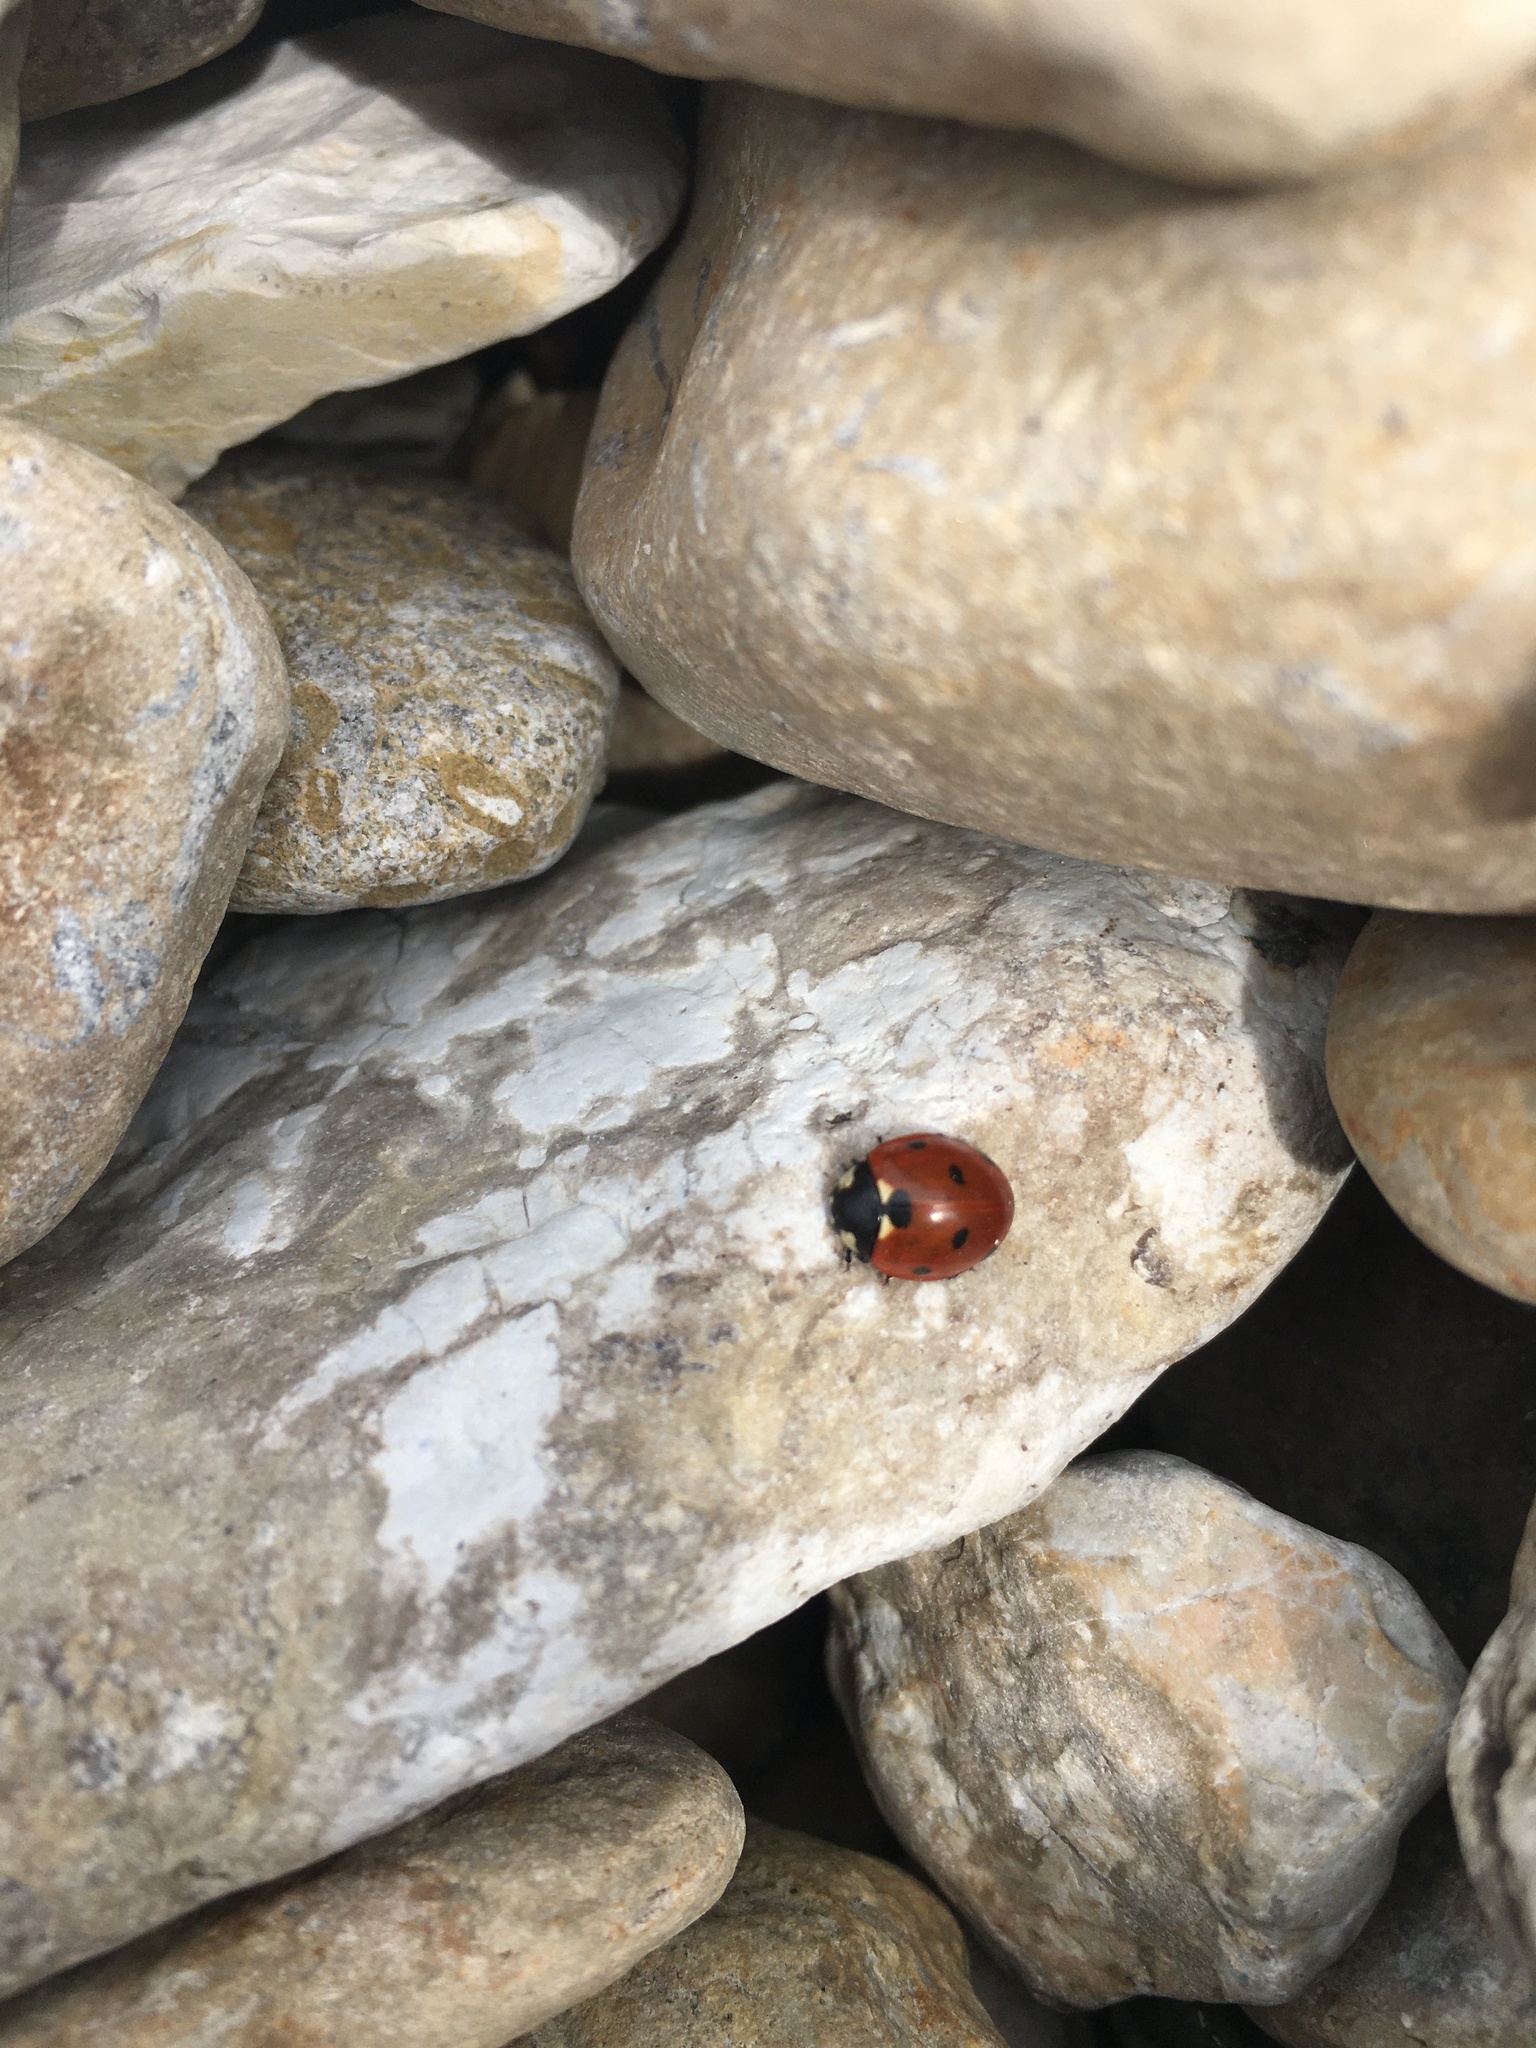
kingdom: Animalia
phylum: Arthropoda
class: Insecta
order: Coleoptera
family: Coccinellidae
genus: Coccinella
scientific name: Coccinella septempunctata
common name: Sevenspotted lady beetle
